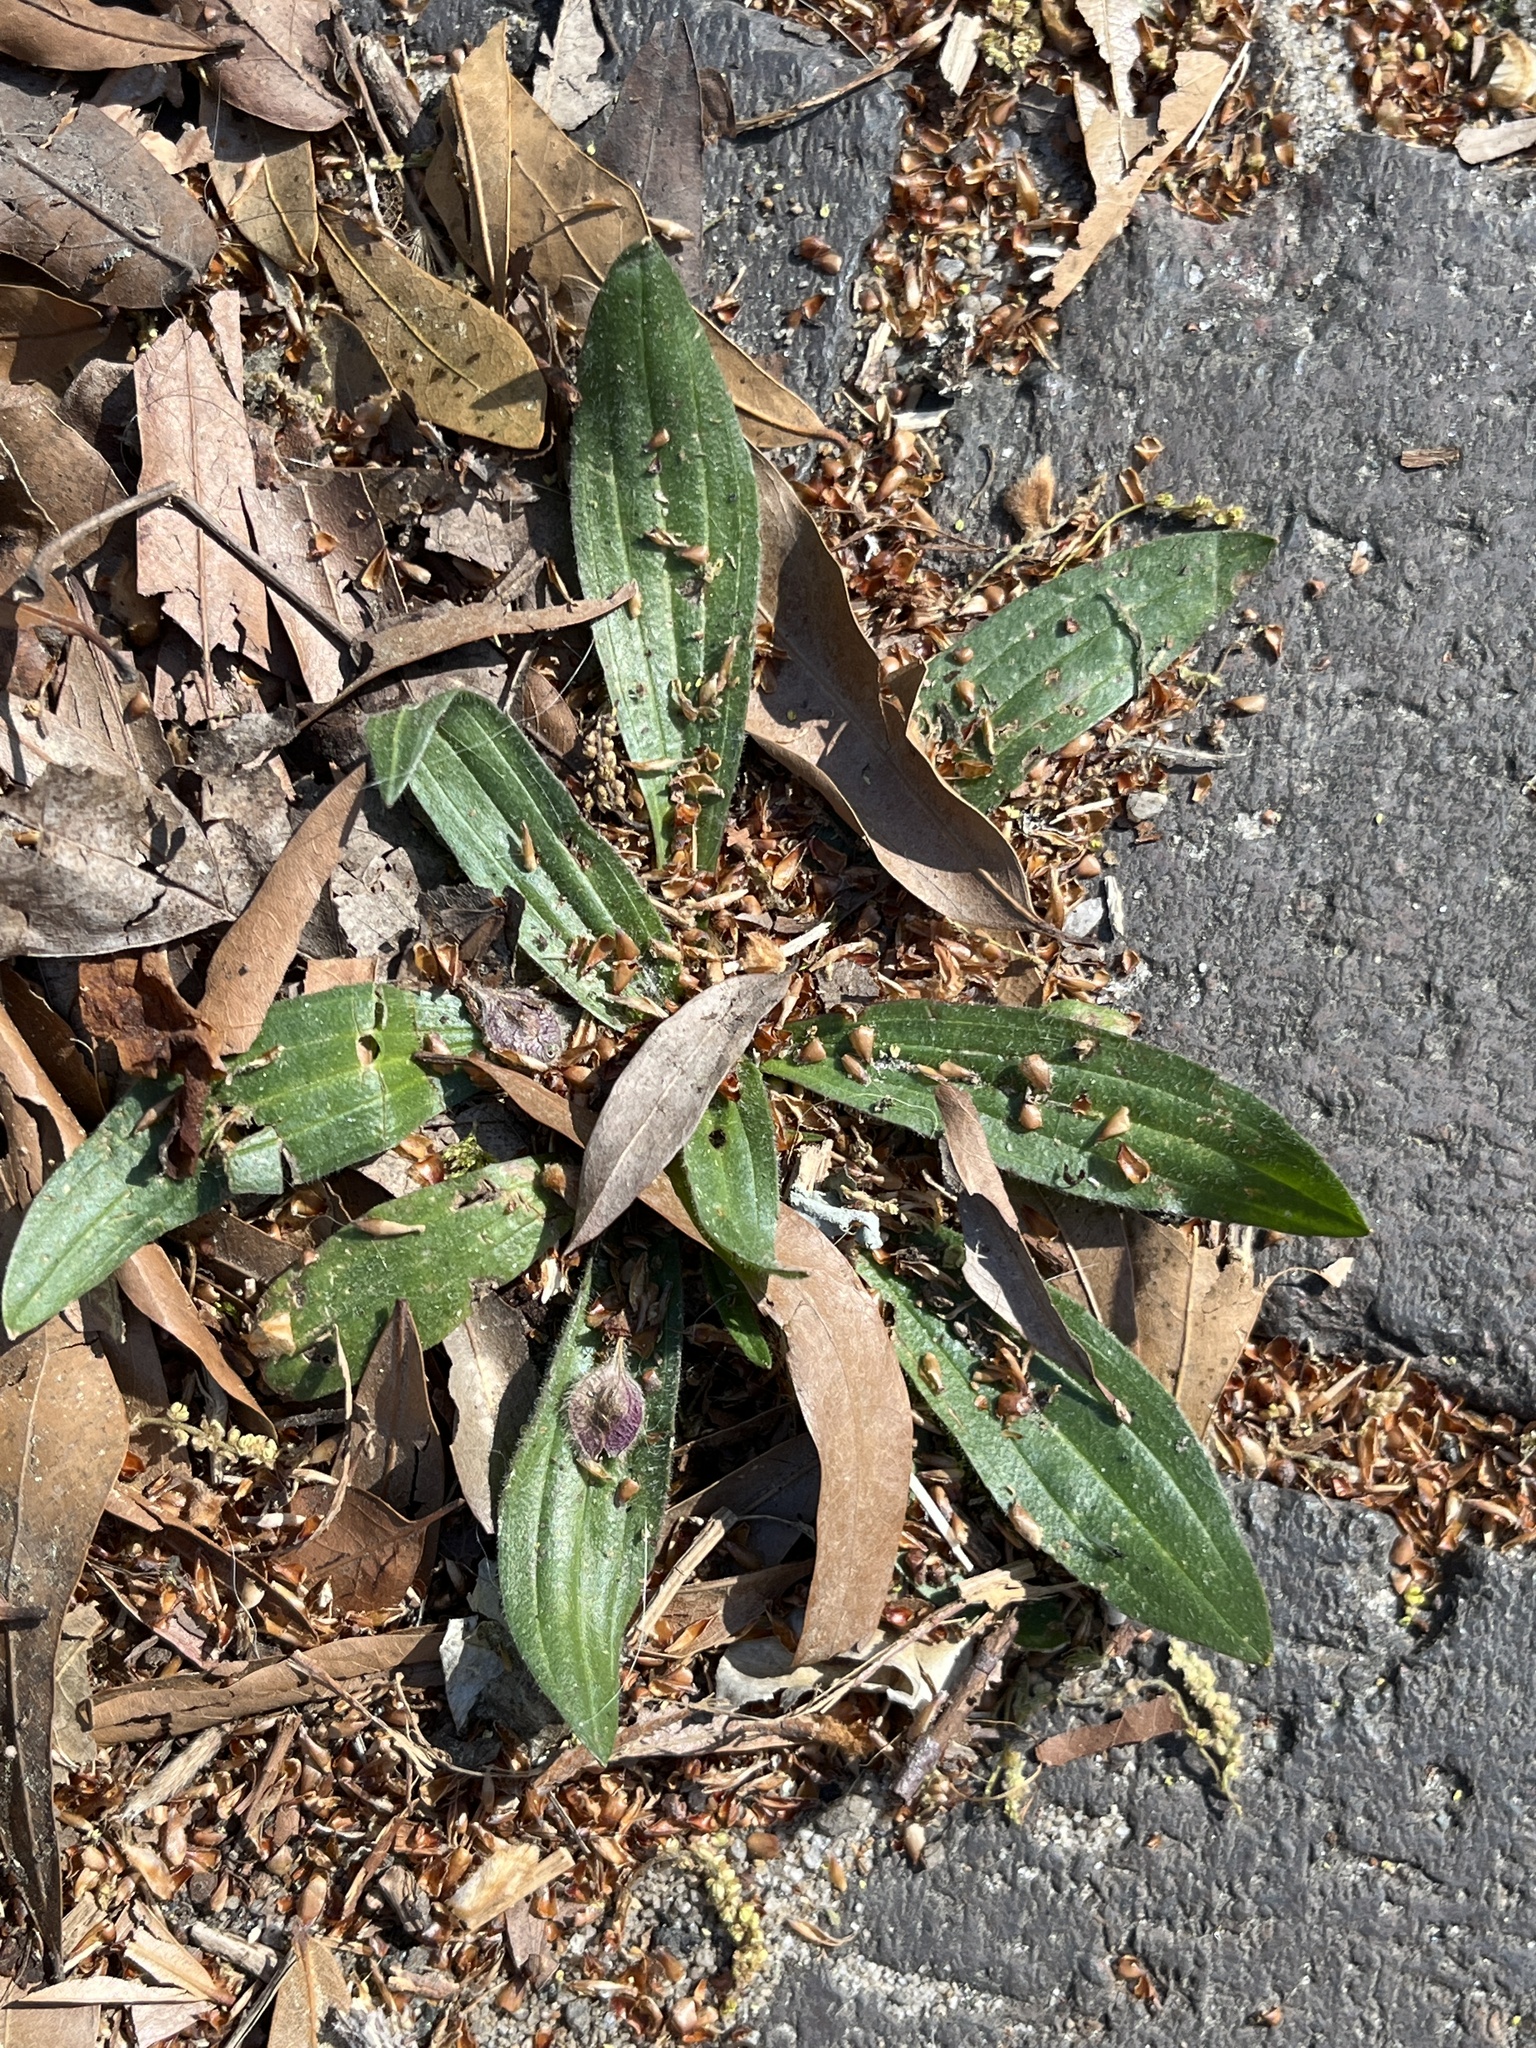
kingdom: Plantae
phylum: Tracheophyta
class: Magnoliopsida
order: Lamiales
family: Plantaginaceae
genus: Plantago
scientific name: Plantago lanceolata
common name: Ribwort plantain
